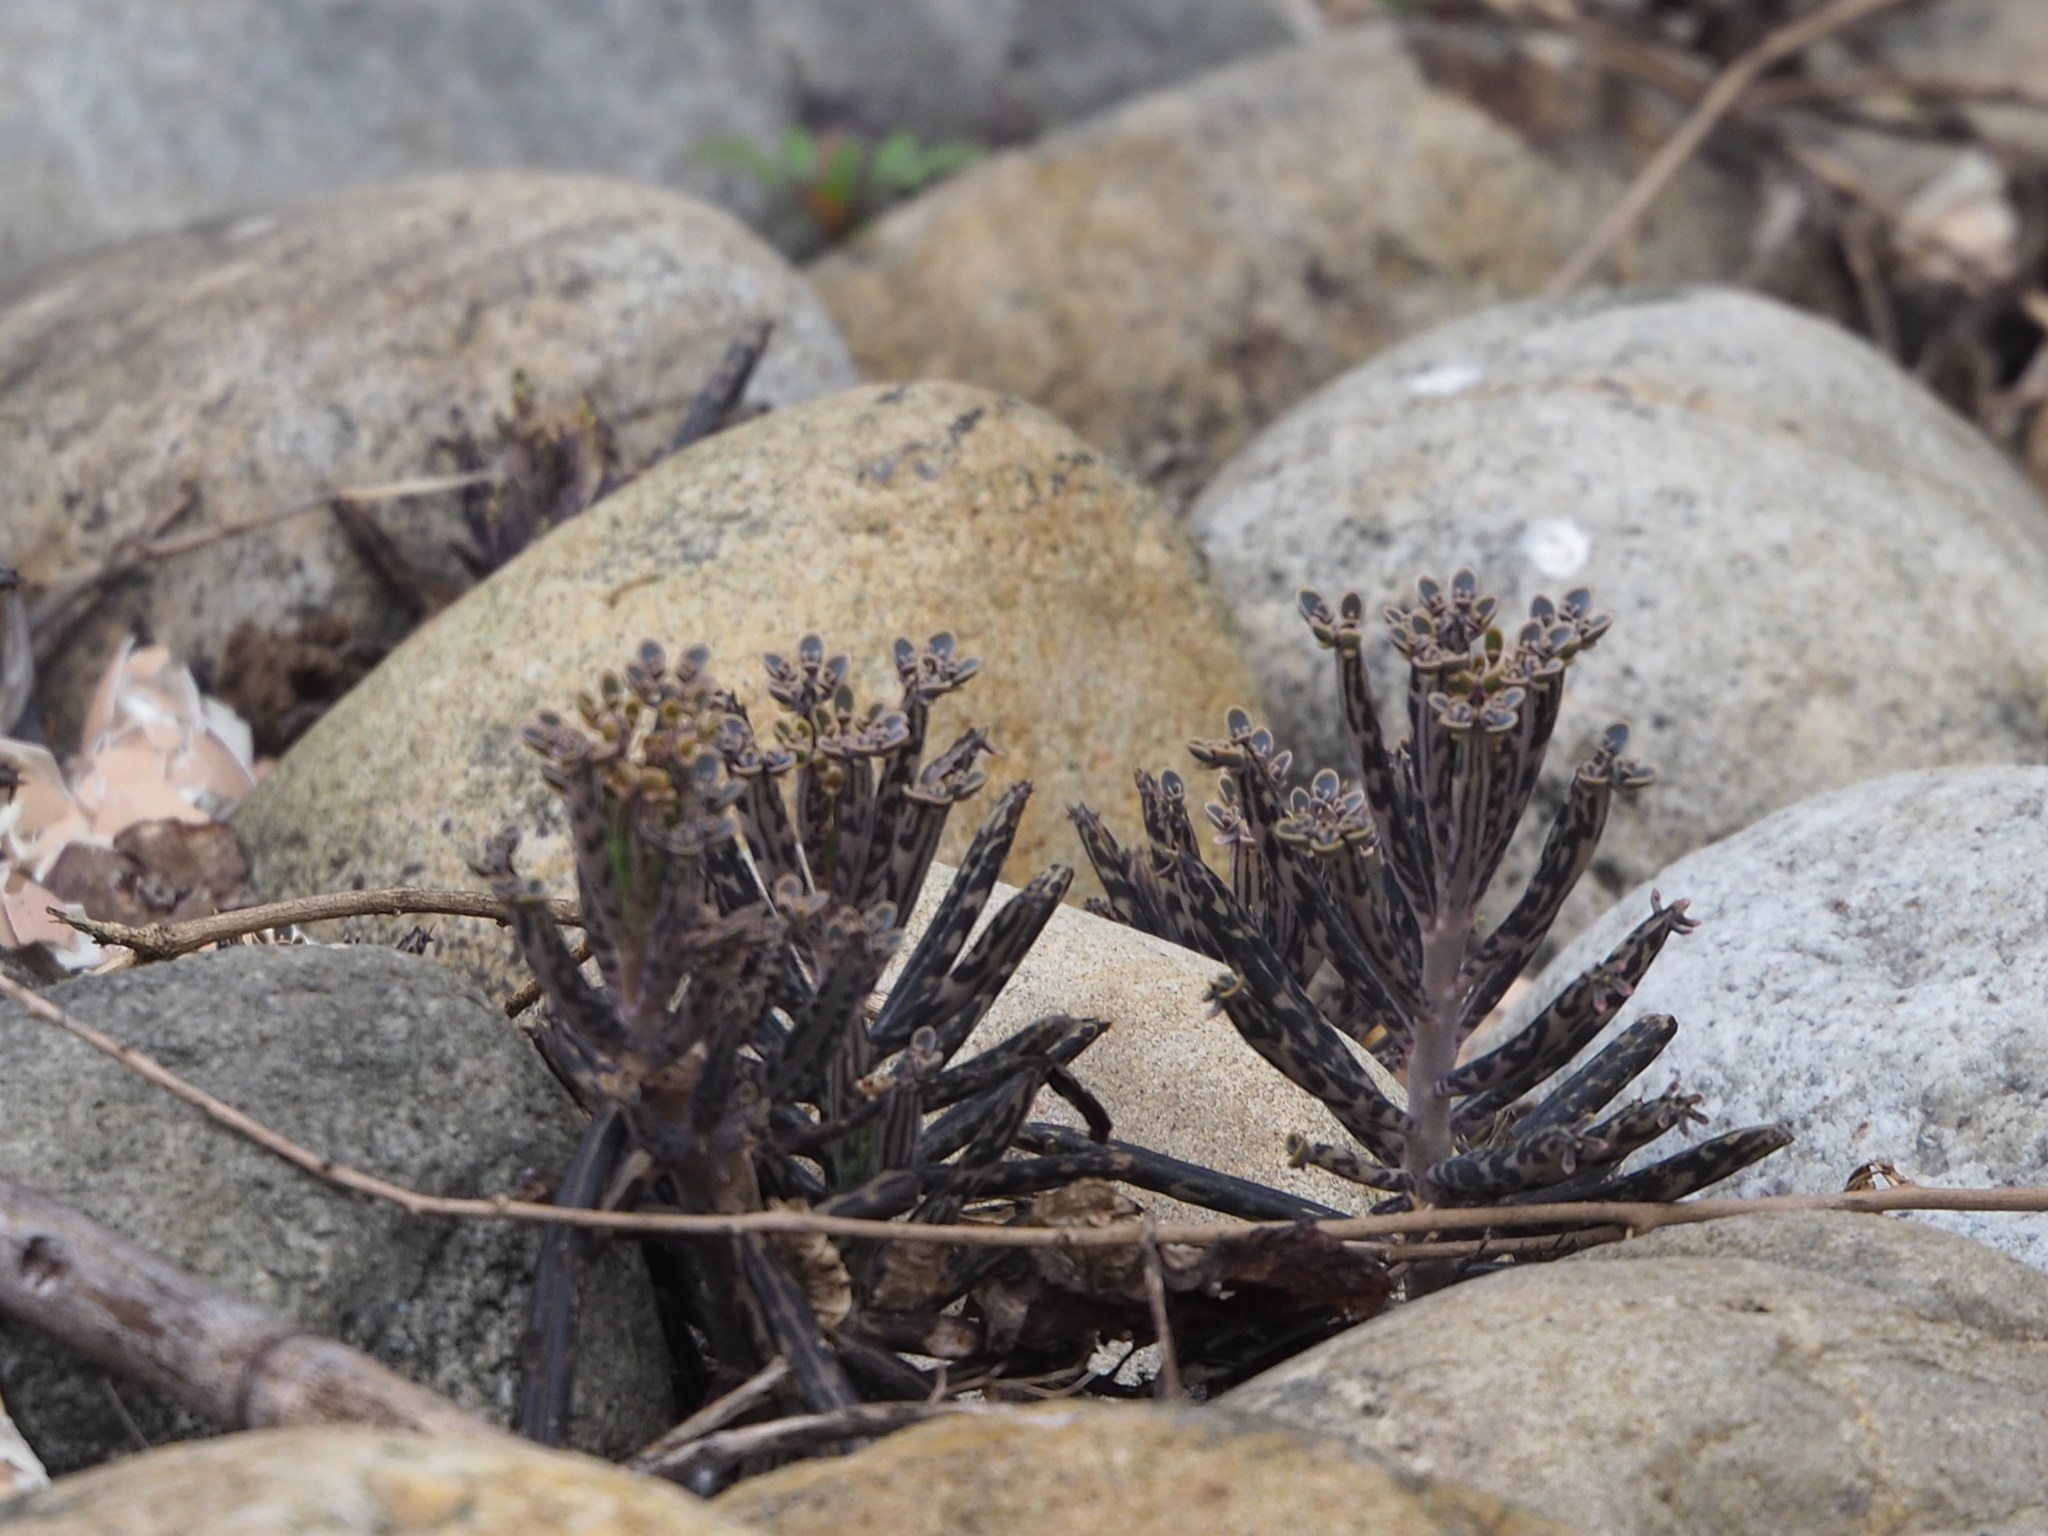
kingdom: Plantae
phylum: Tracheophyta
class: Magnoliopsida
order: Saxifragales
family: Crassulaceae
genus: Kalanchoe
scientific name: Kalanchoe delagoensis
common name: Chandelier plant
